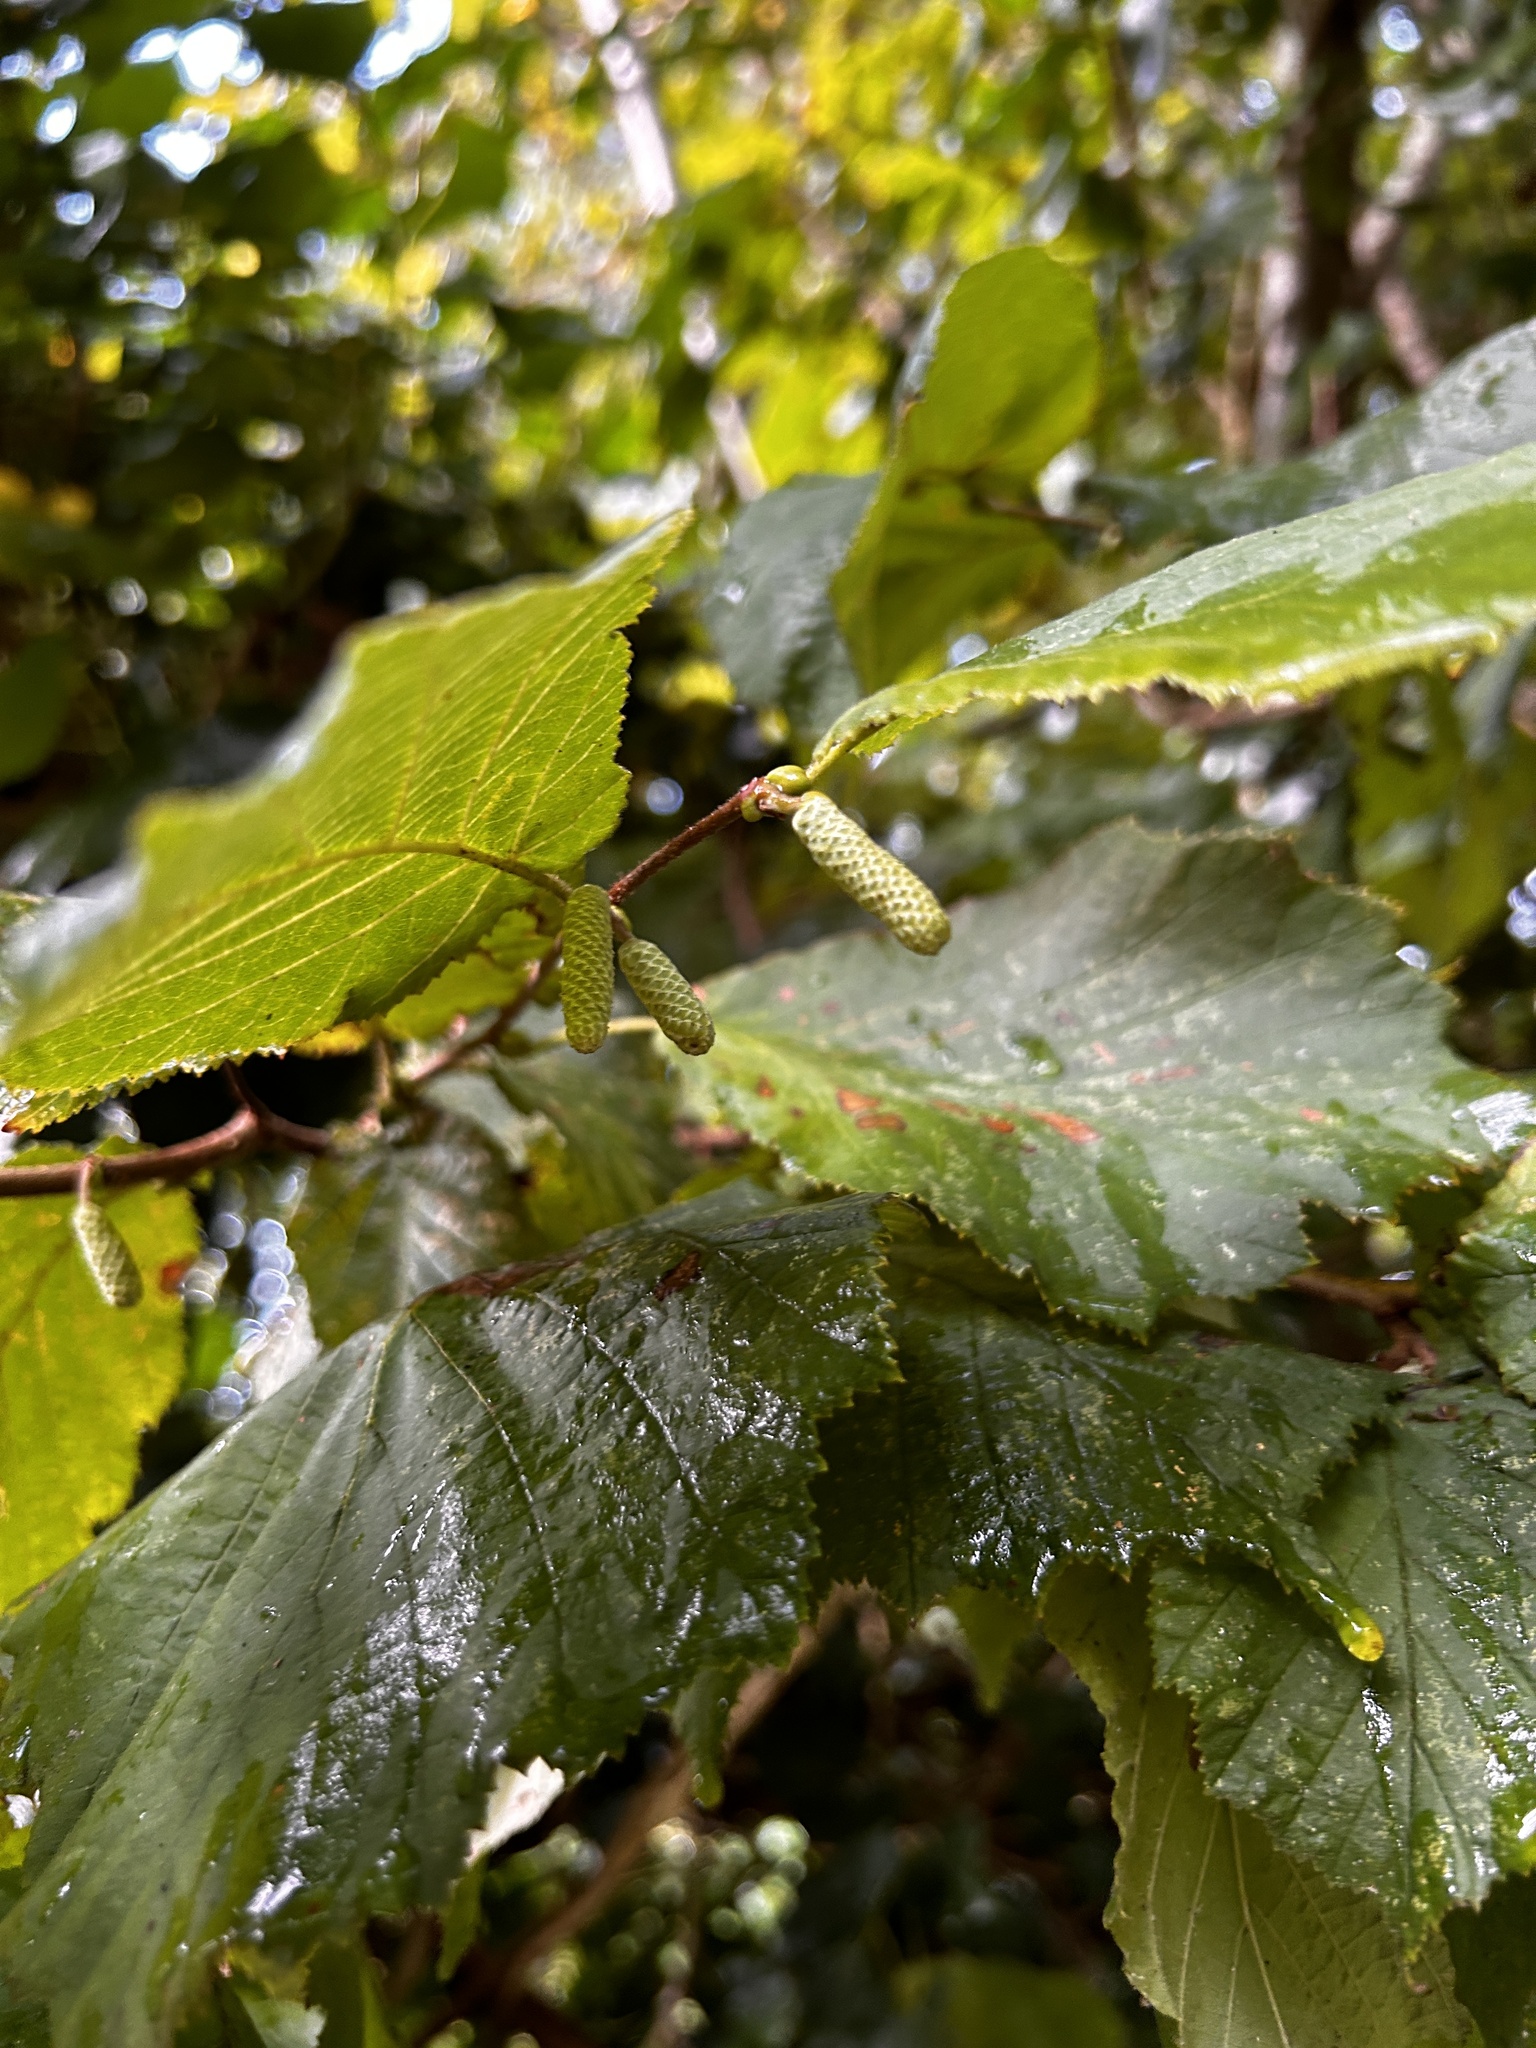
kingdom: Plantae
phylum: Tracheophyta
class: Magnoliopsida
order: Fagales
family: Betulaceae
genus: Corylus
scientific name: Corylus avellana
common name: European hazel
